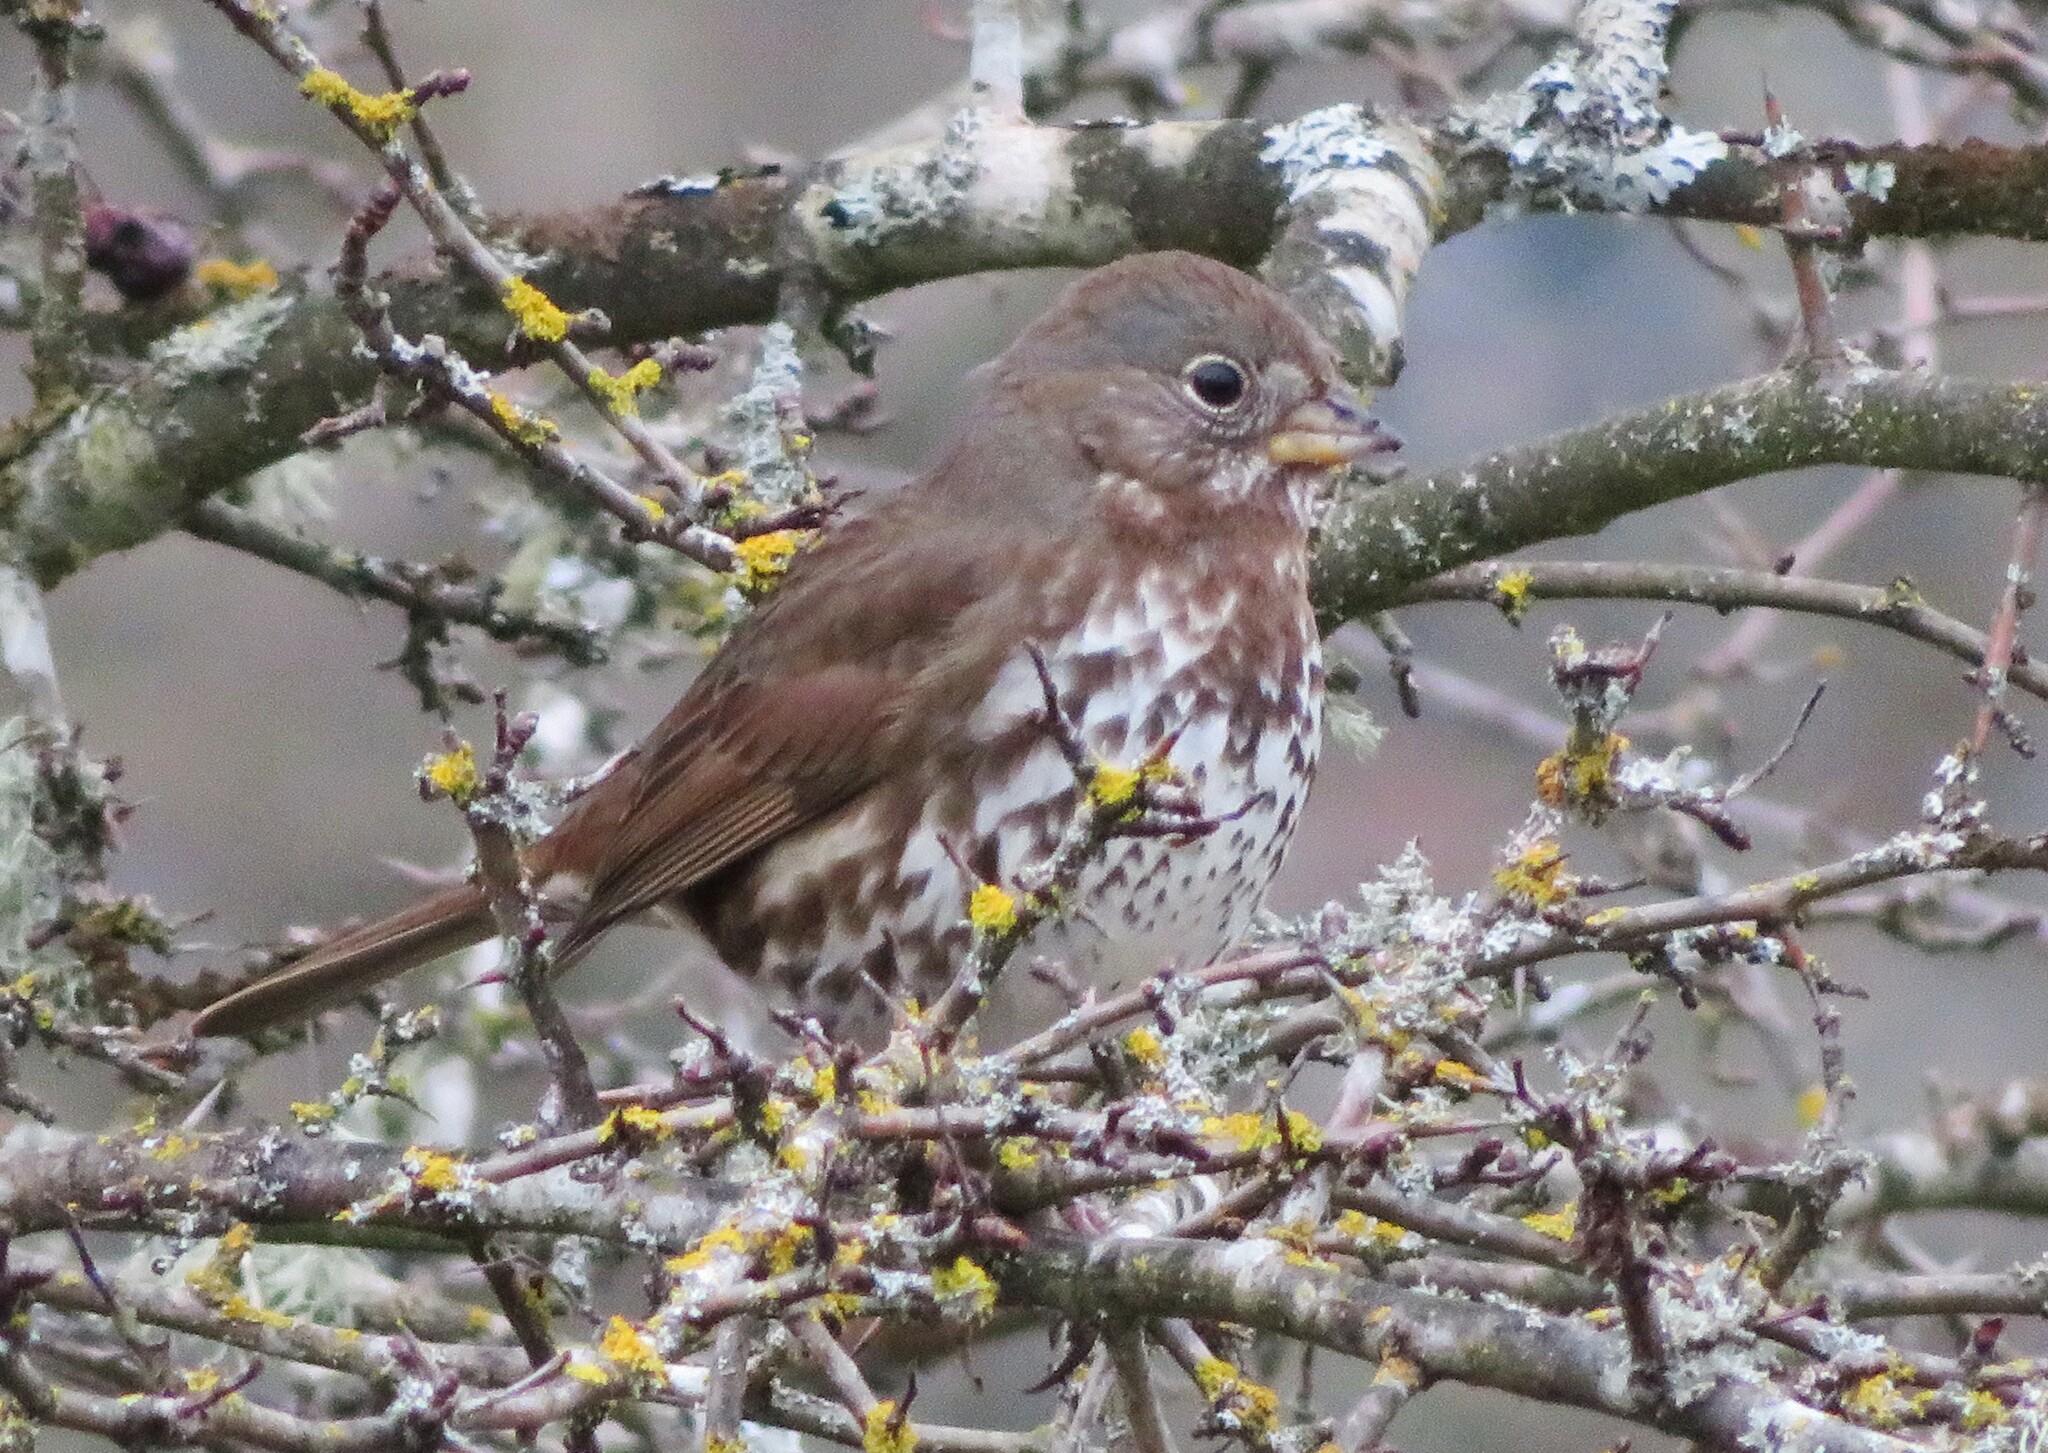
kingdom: Animalia
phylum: Chordata
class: Aves
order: Passeriformes
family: Passerellidae
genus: Passerella
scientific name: Passerella iliaca
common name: Fox sparrow
